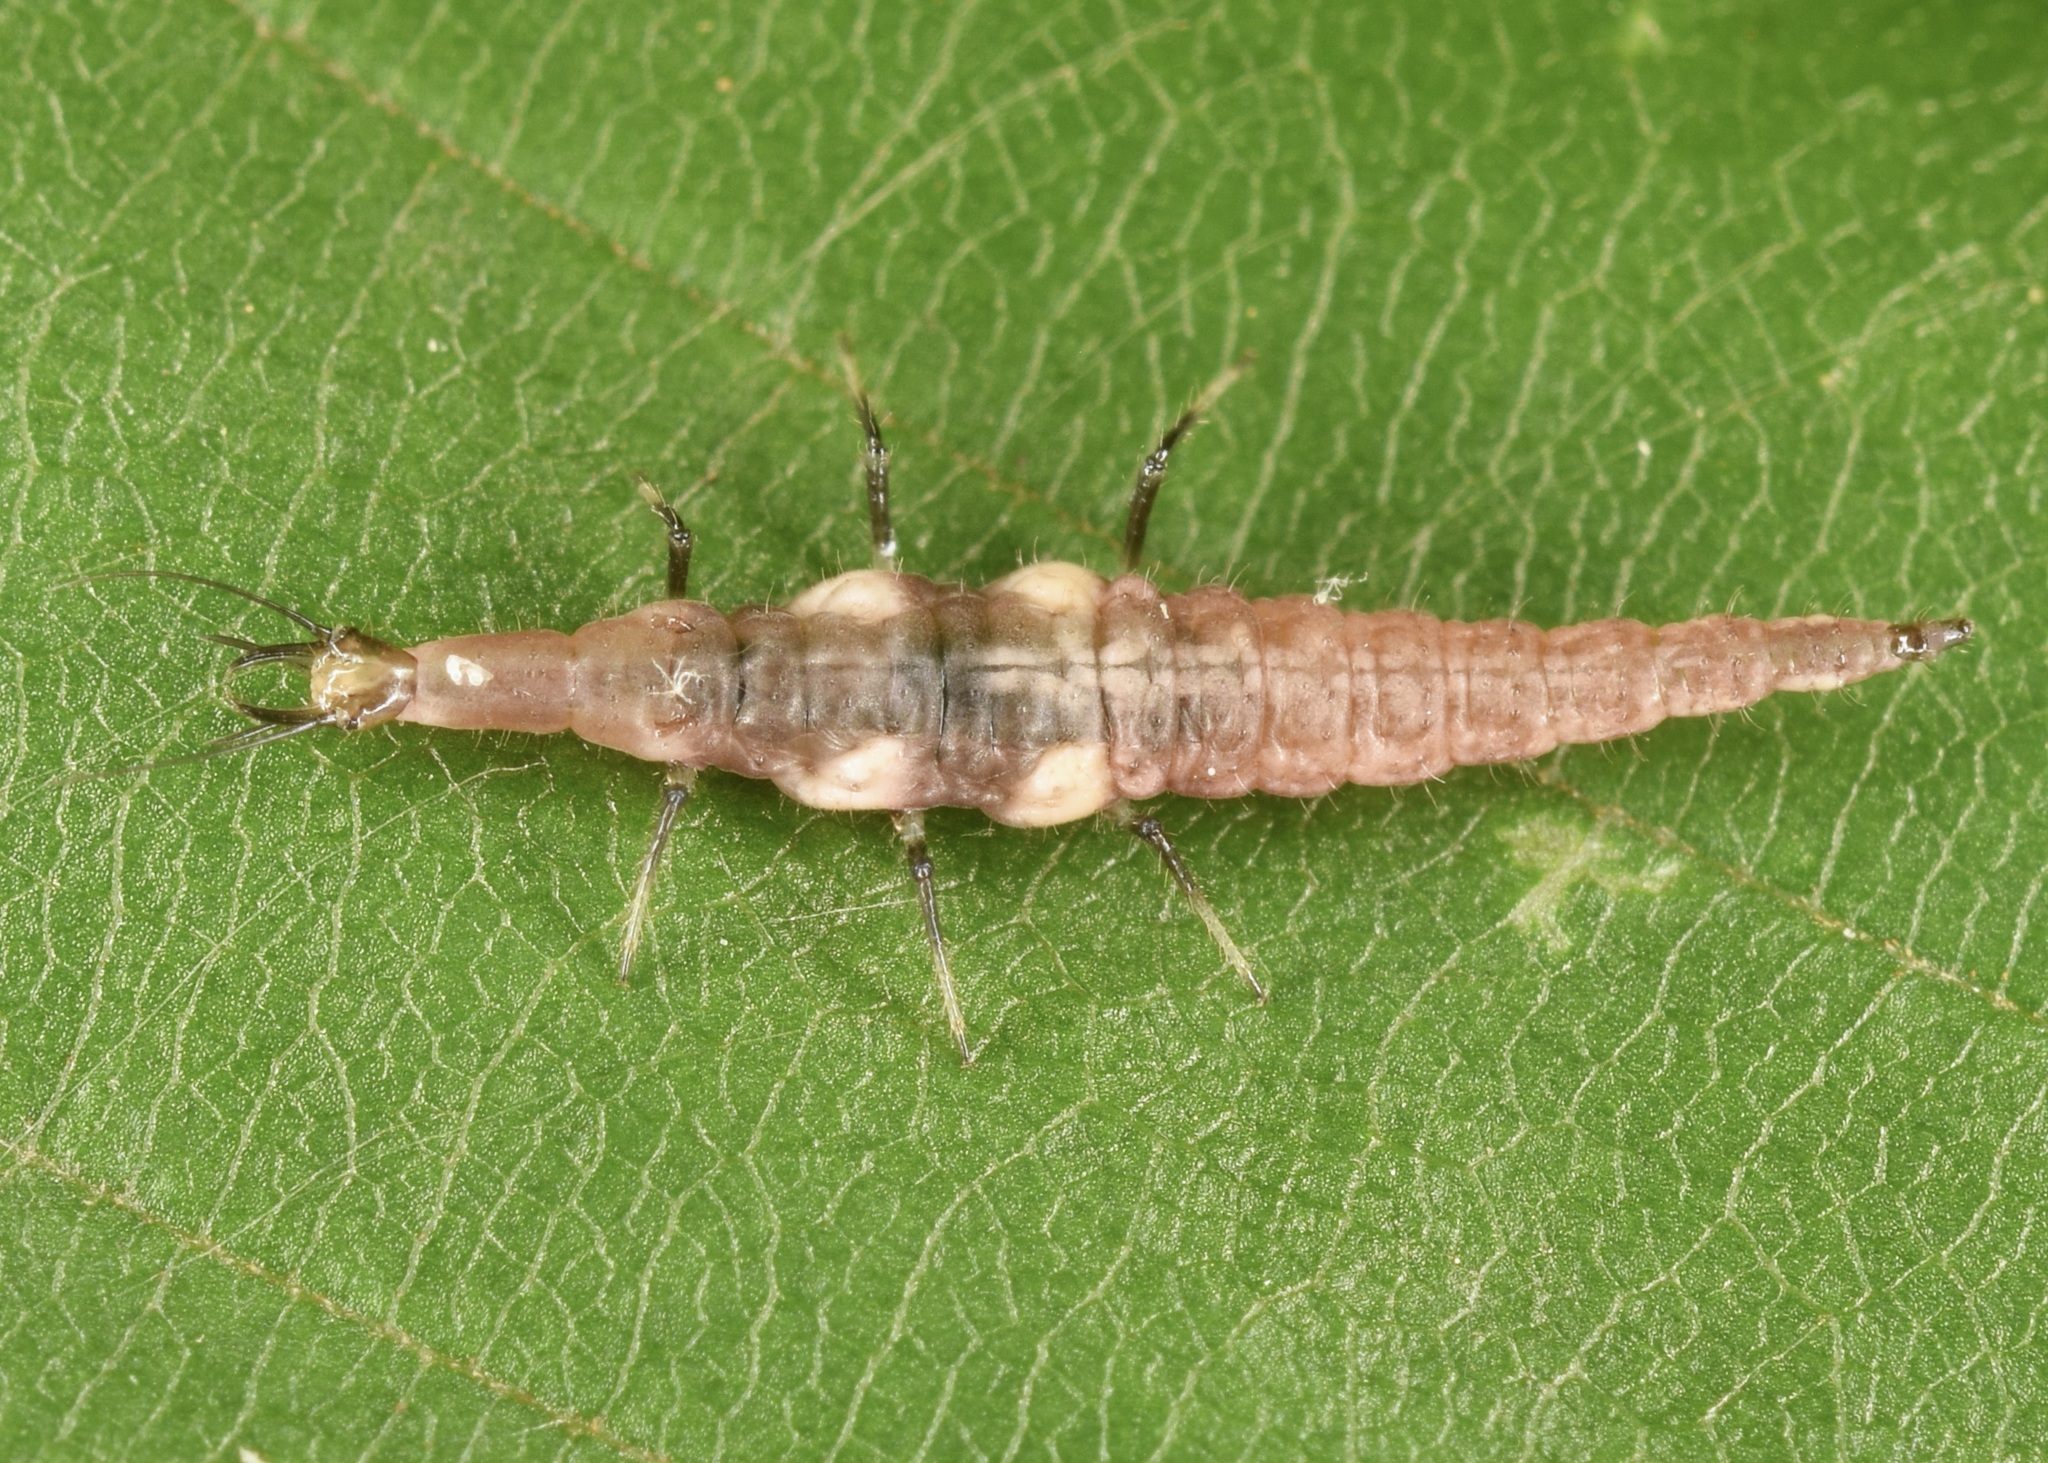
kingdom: Animalia
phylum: Arthropoda
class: Insecta
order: Neuroptera
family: Hemerobiidae
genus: Micromus
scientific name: Micromus
